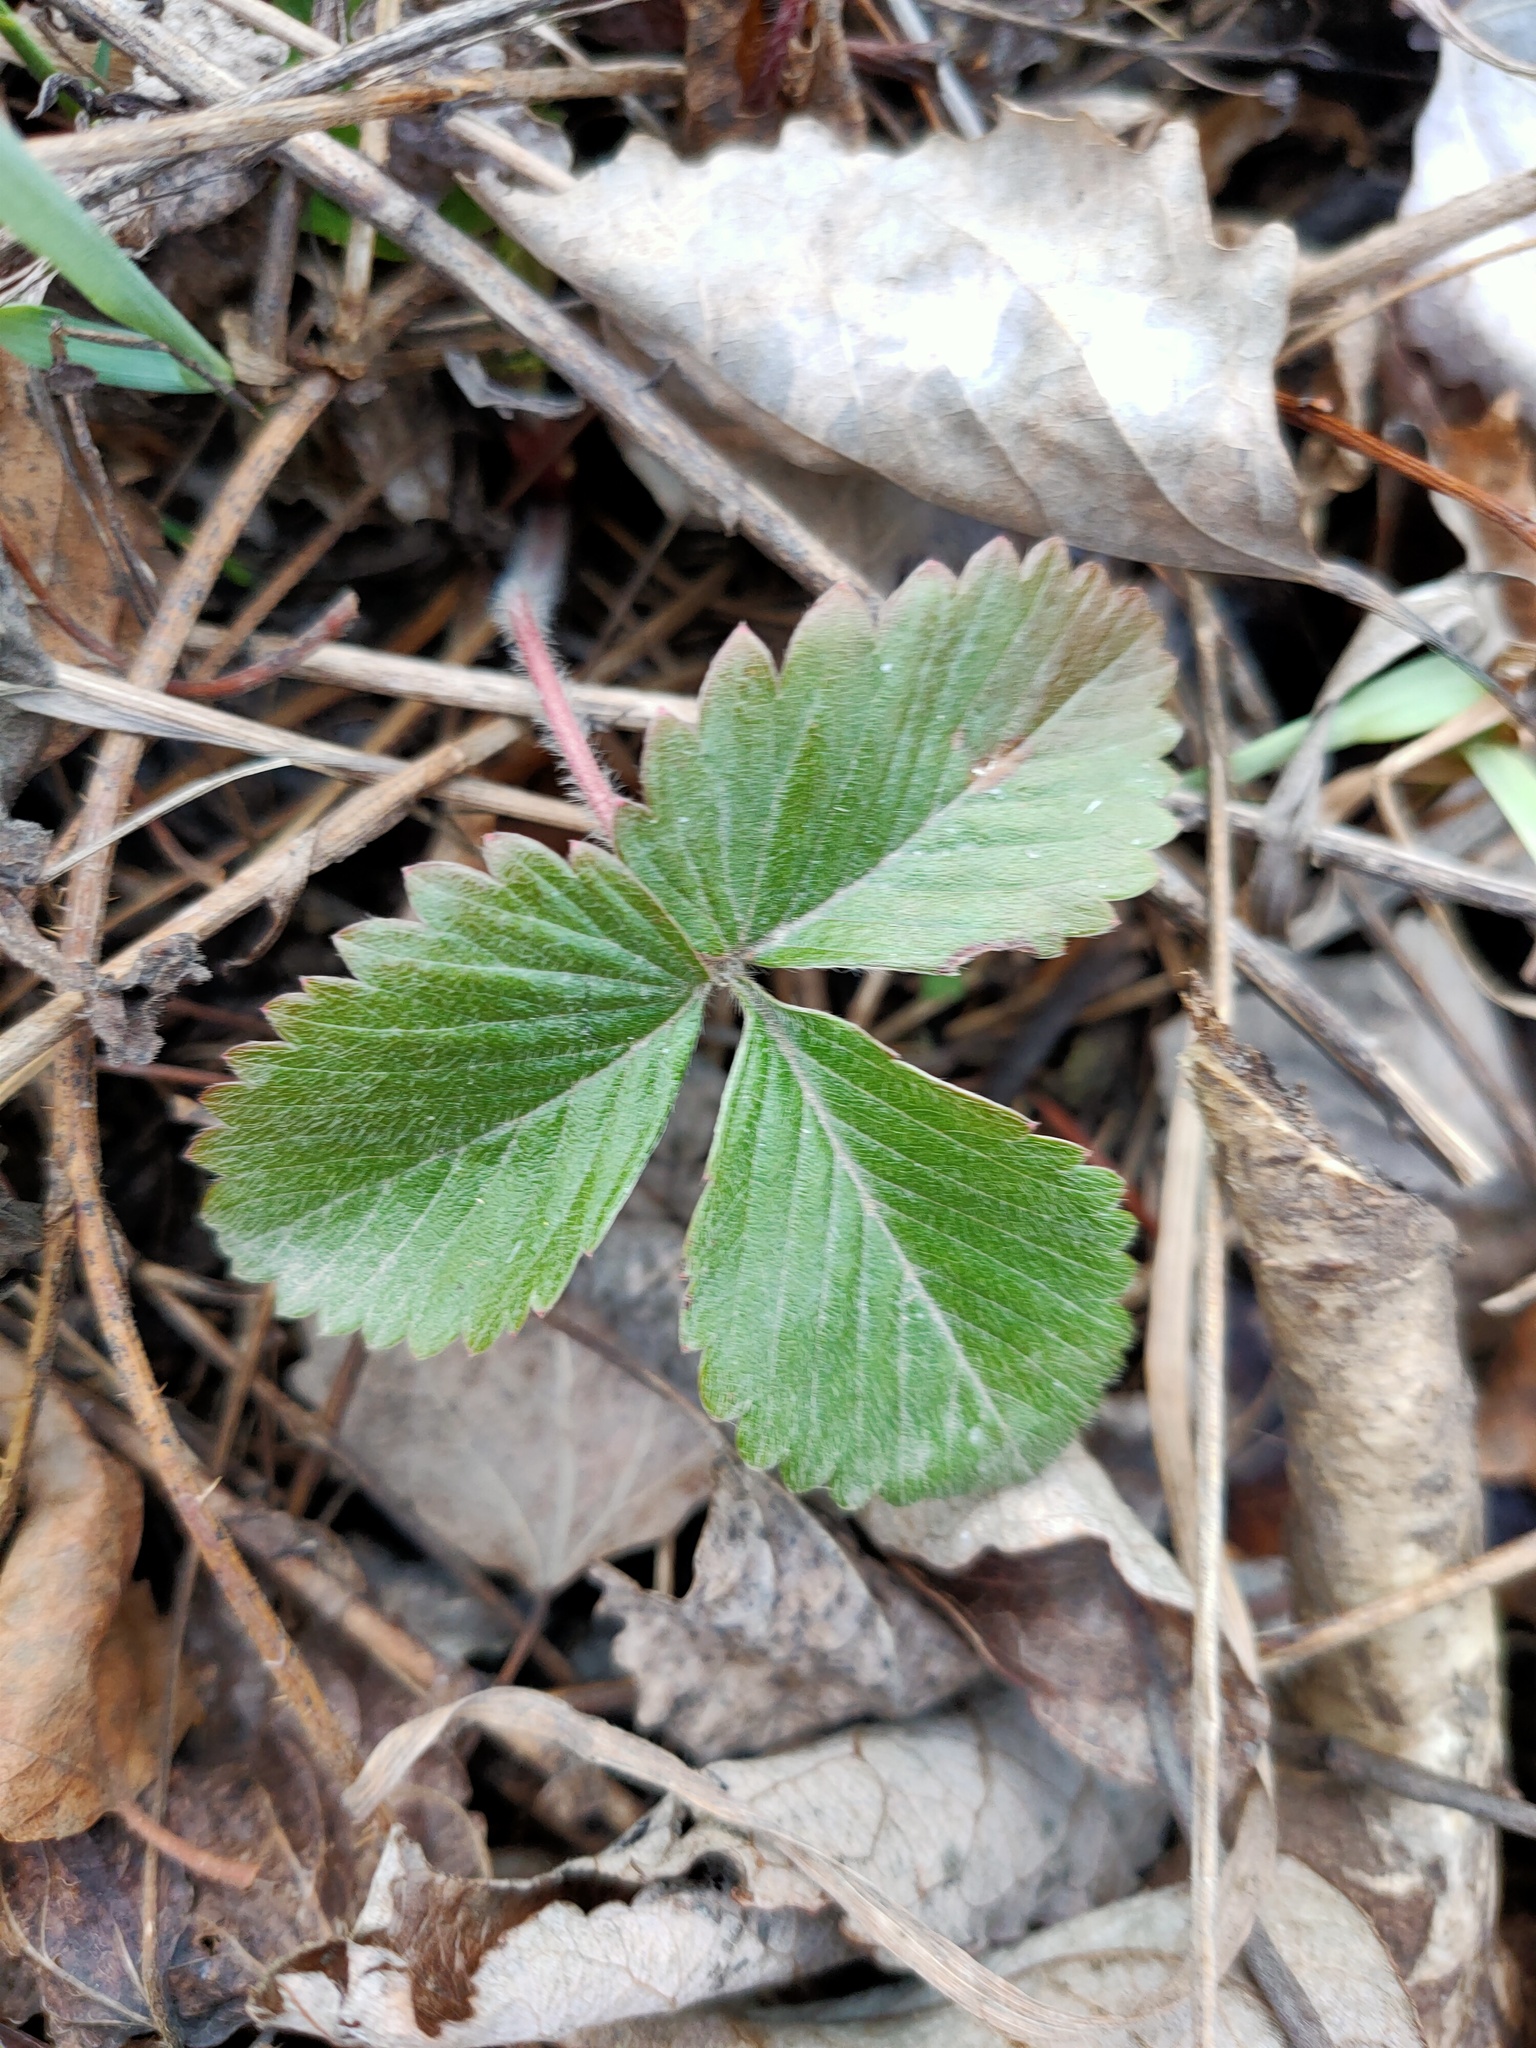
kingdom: Plantae
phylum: Tracheophyta
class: Magnoliopsida
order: Rosales
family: Rosaceae
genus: Fragaria
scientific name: Fragaria vesca
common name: Wild strawberry
